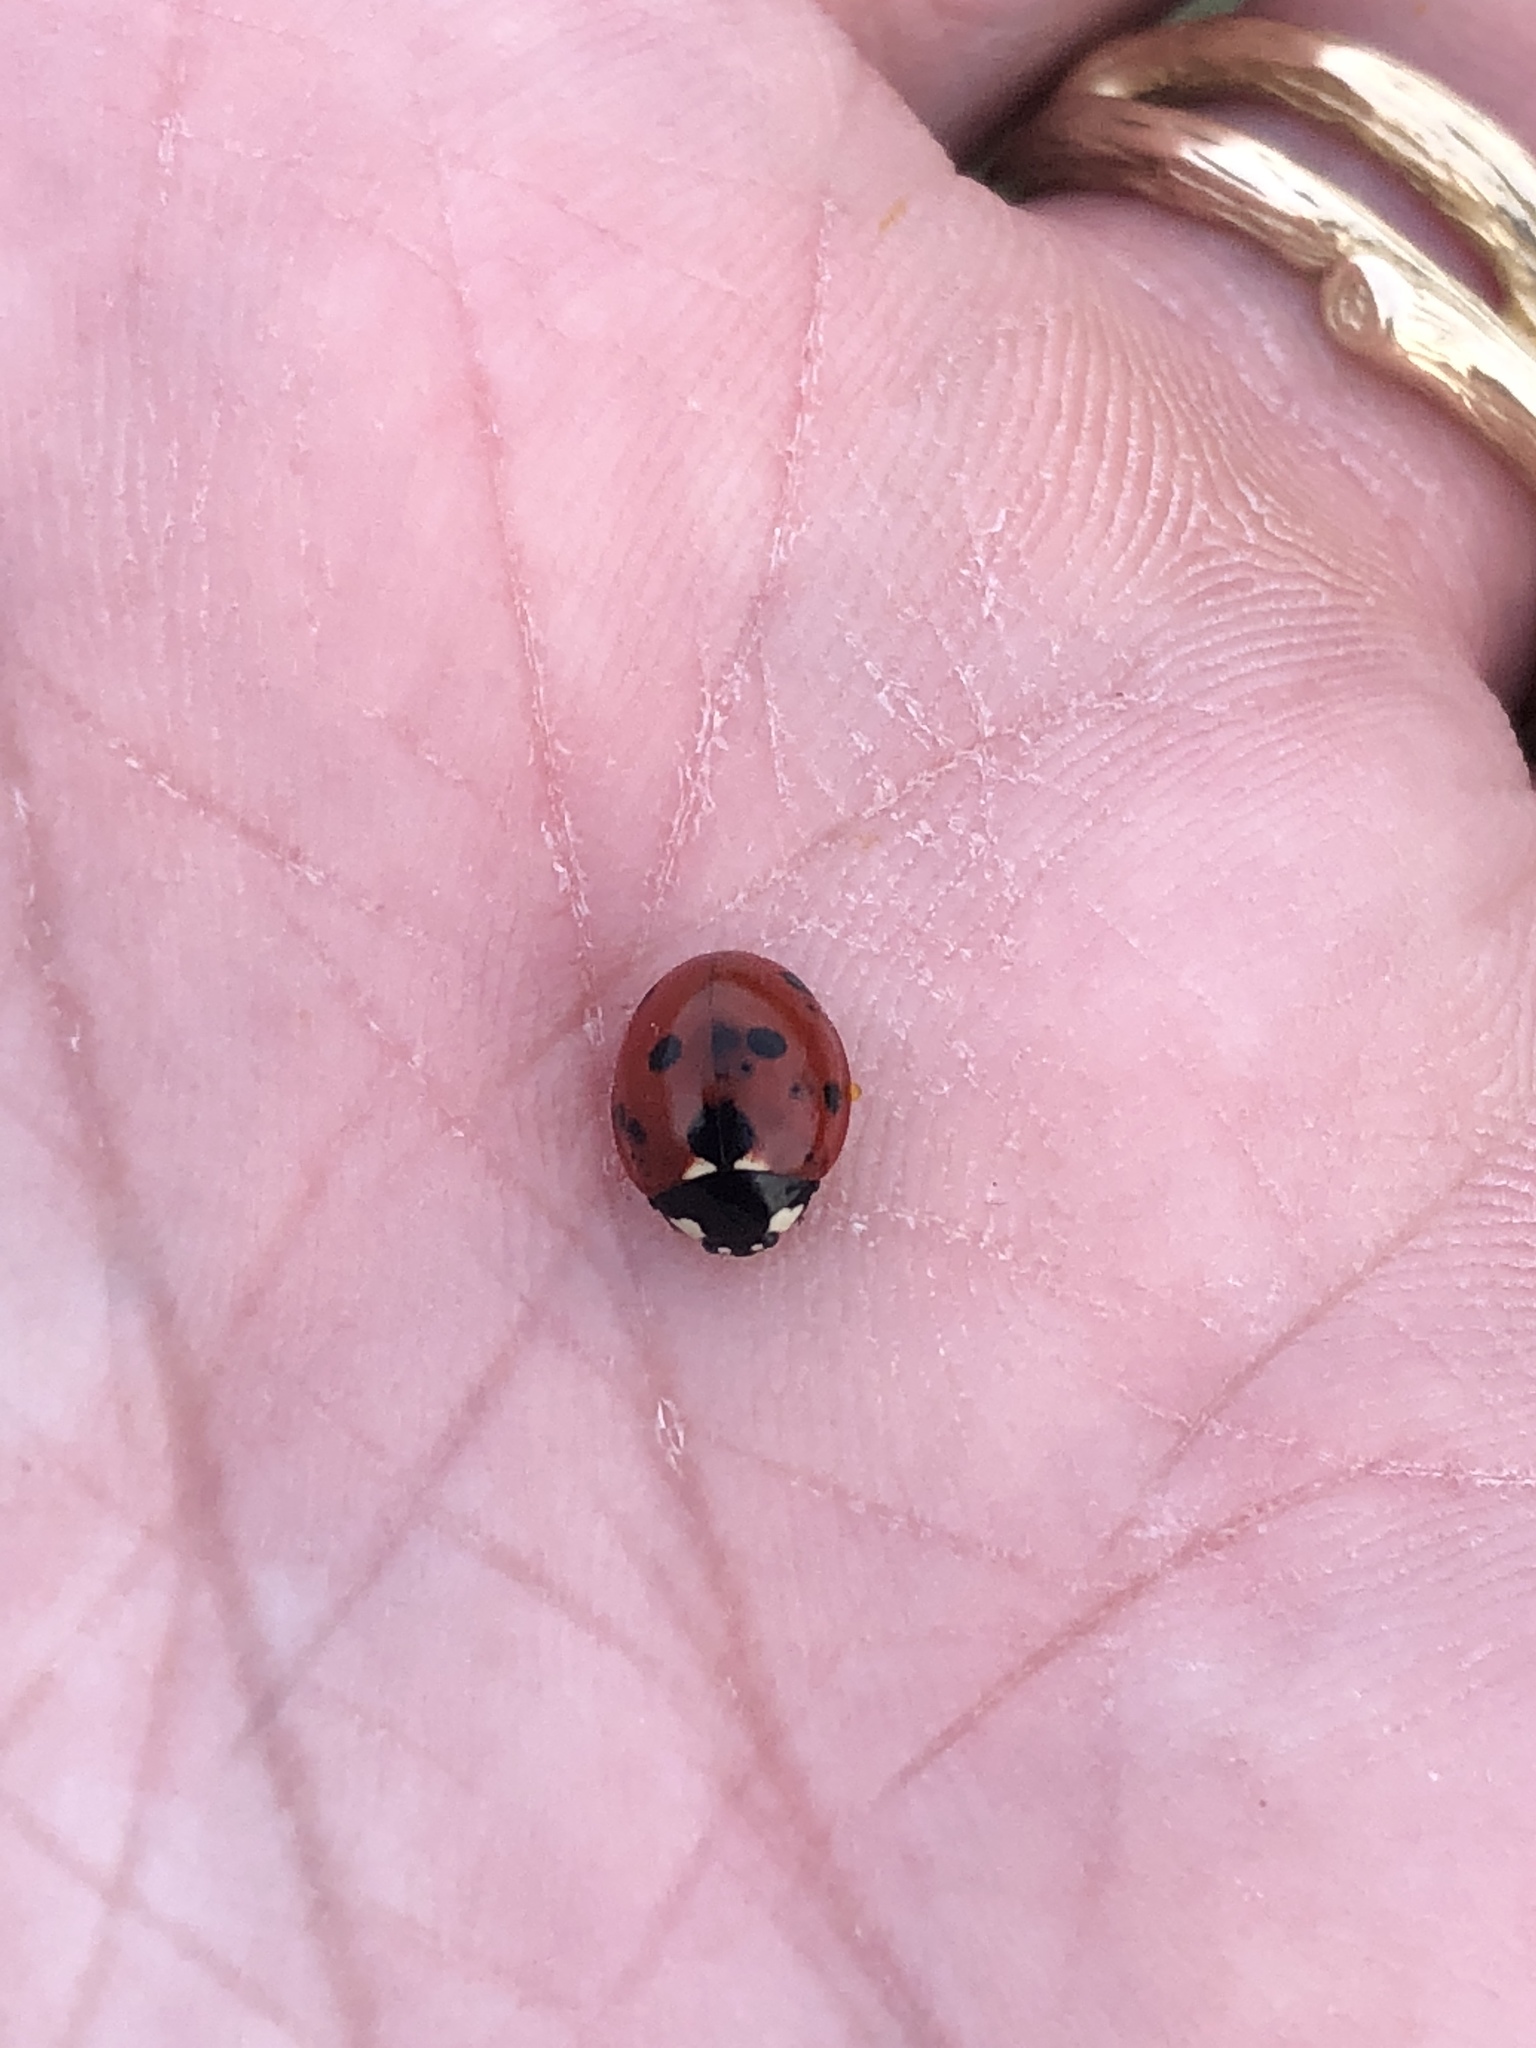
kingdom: Animalia
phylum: Arthropoda
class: Insecta
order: Coleoptera
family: Coccinellidae
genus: Coccinella
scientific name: Coccinella septempunctata
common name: Sevenspotted lady beetle
